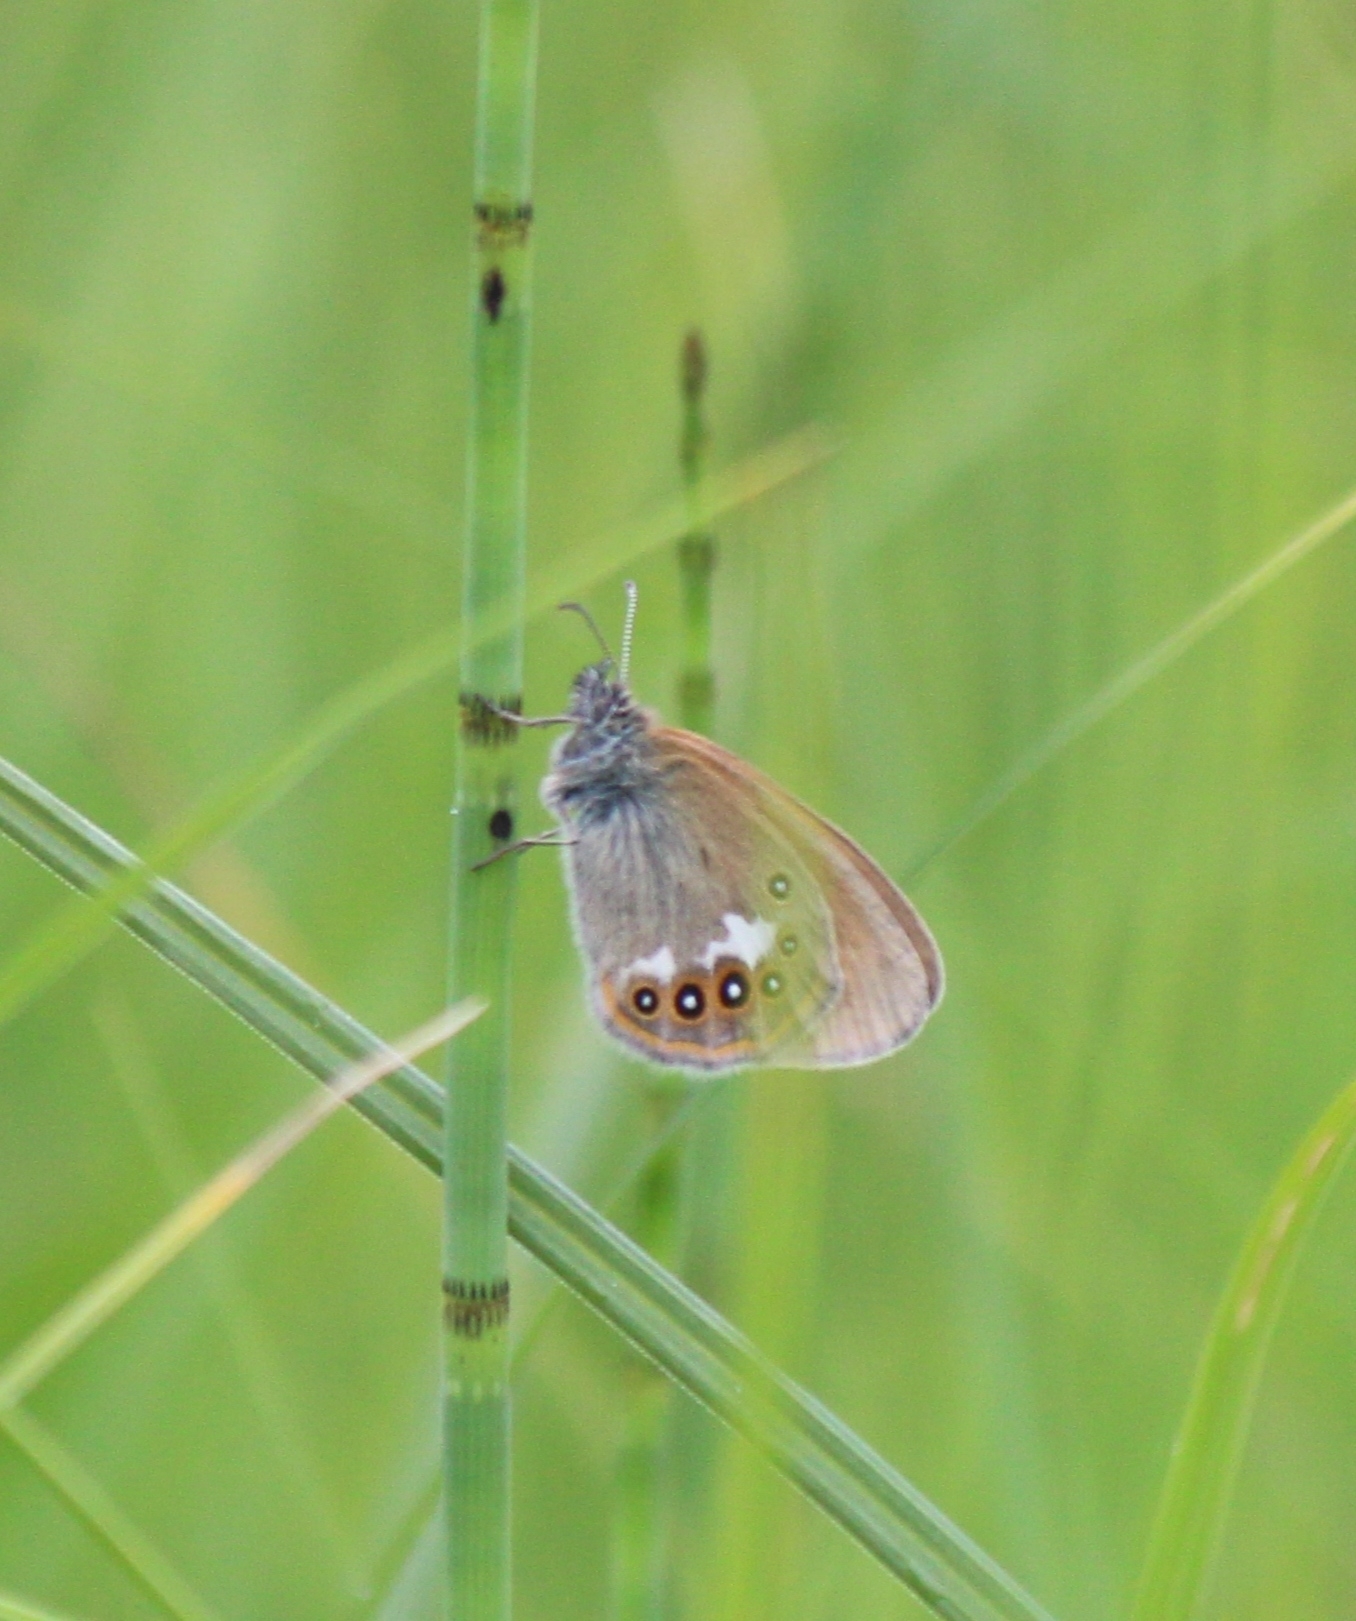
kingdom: Animalia
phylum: Arthropoda
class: Insecta
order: Lepidoptera
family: Nymphalidae
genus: Coenonympha
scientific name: Coenonympha iphis
